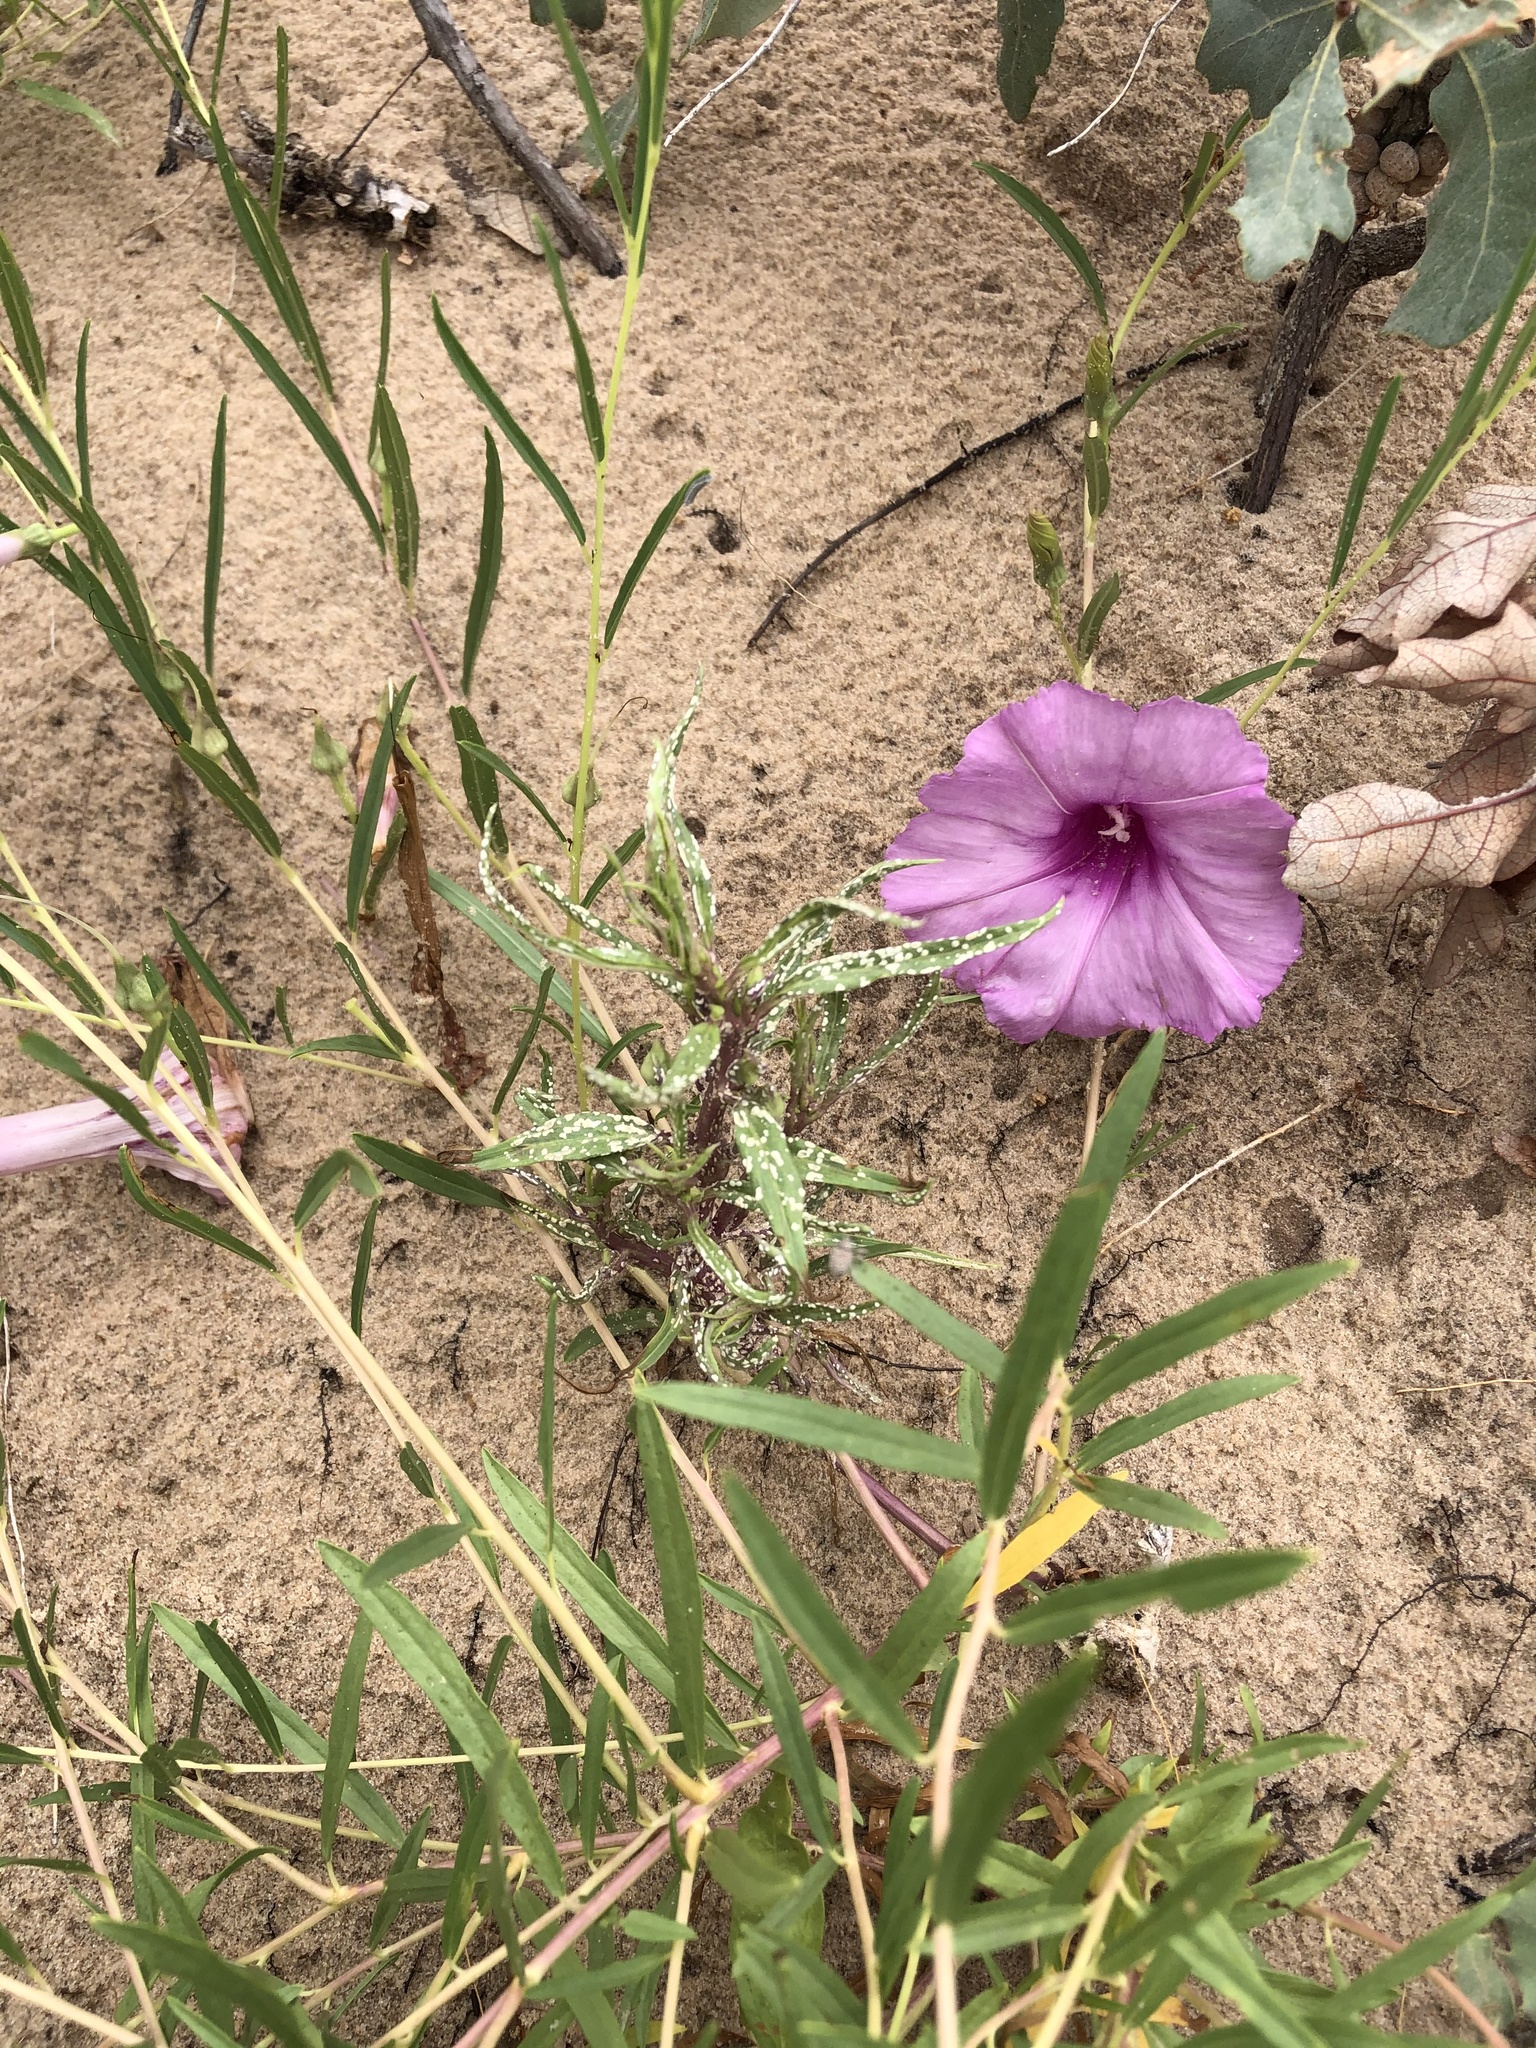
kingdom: Plantae
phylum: Tracheophyta
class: Magnoliopsida
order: Solanales
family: Convolvulaceae
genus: Ipomoea
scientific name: Ipomoea leptophylla
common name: Bush moonflower
